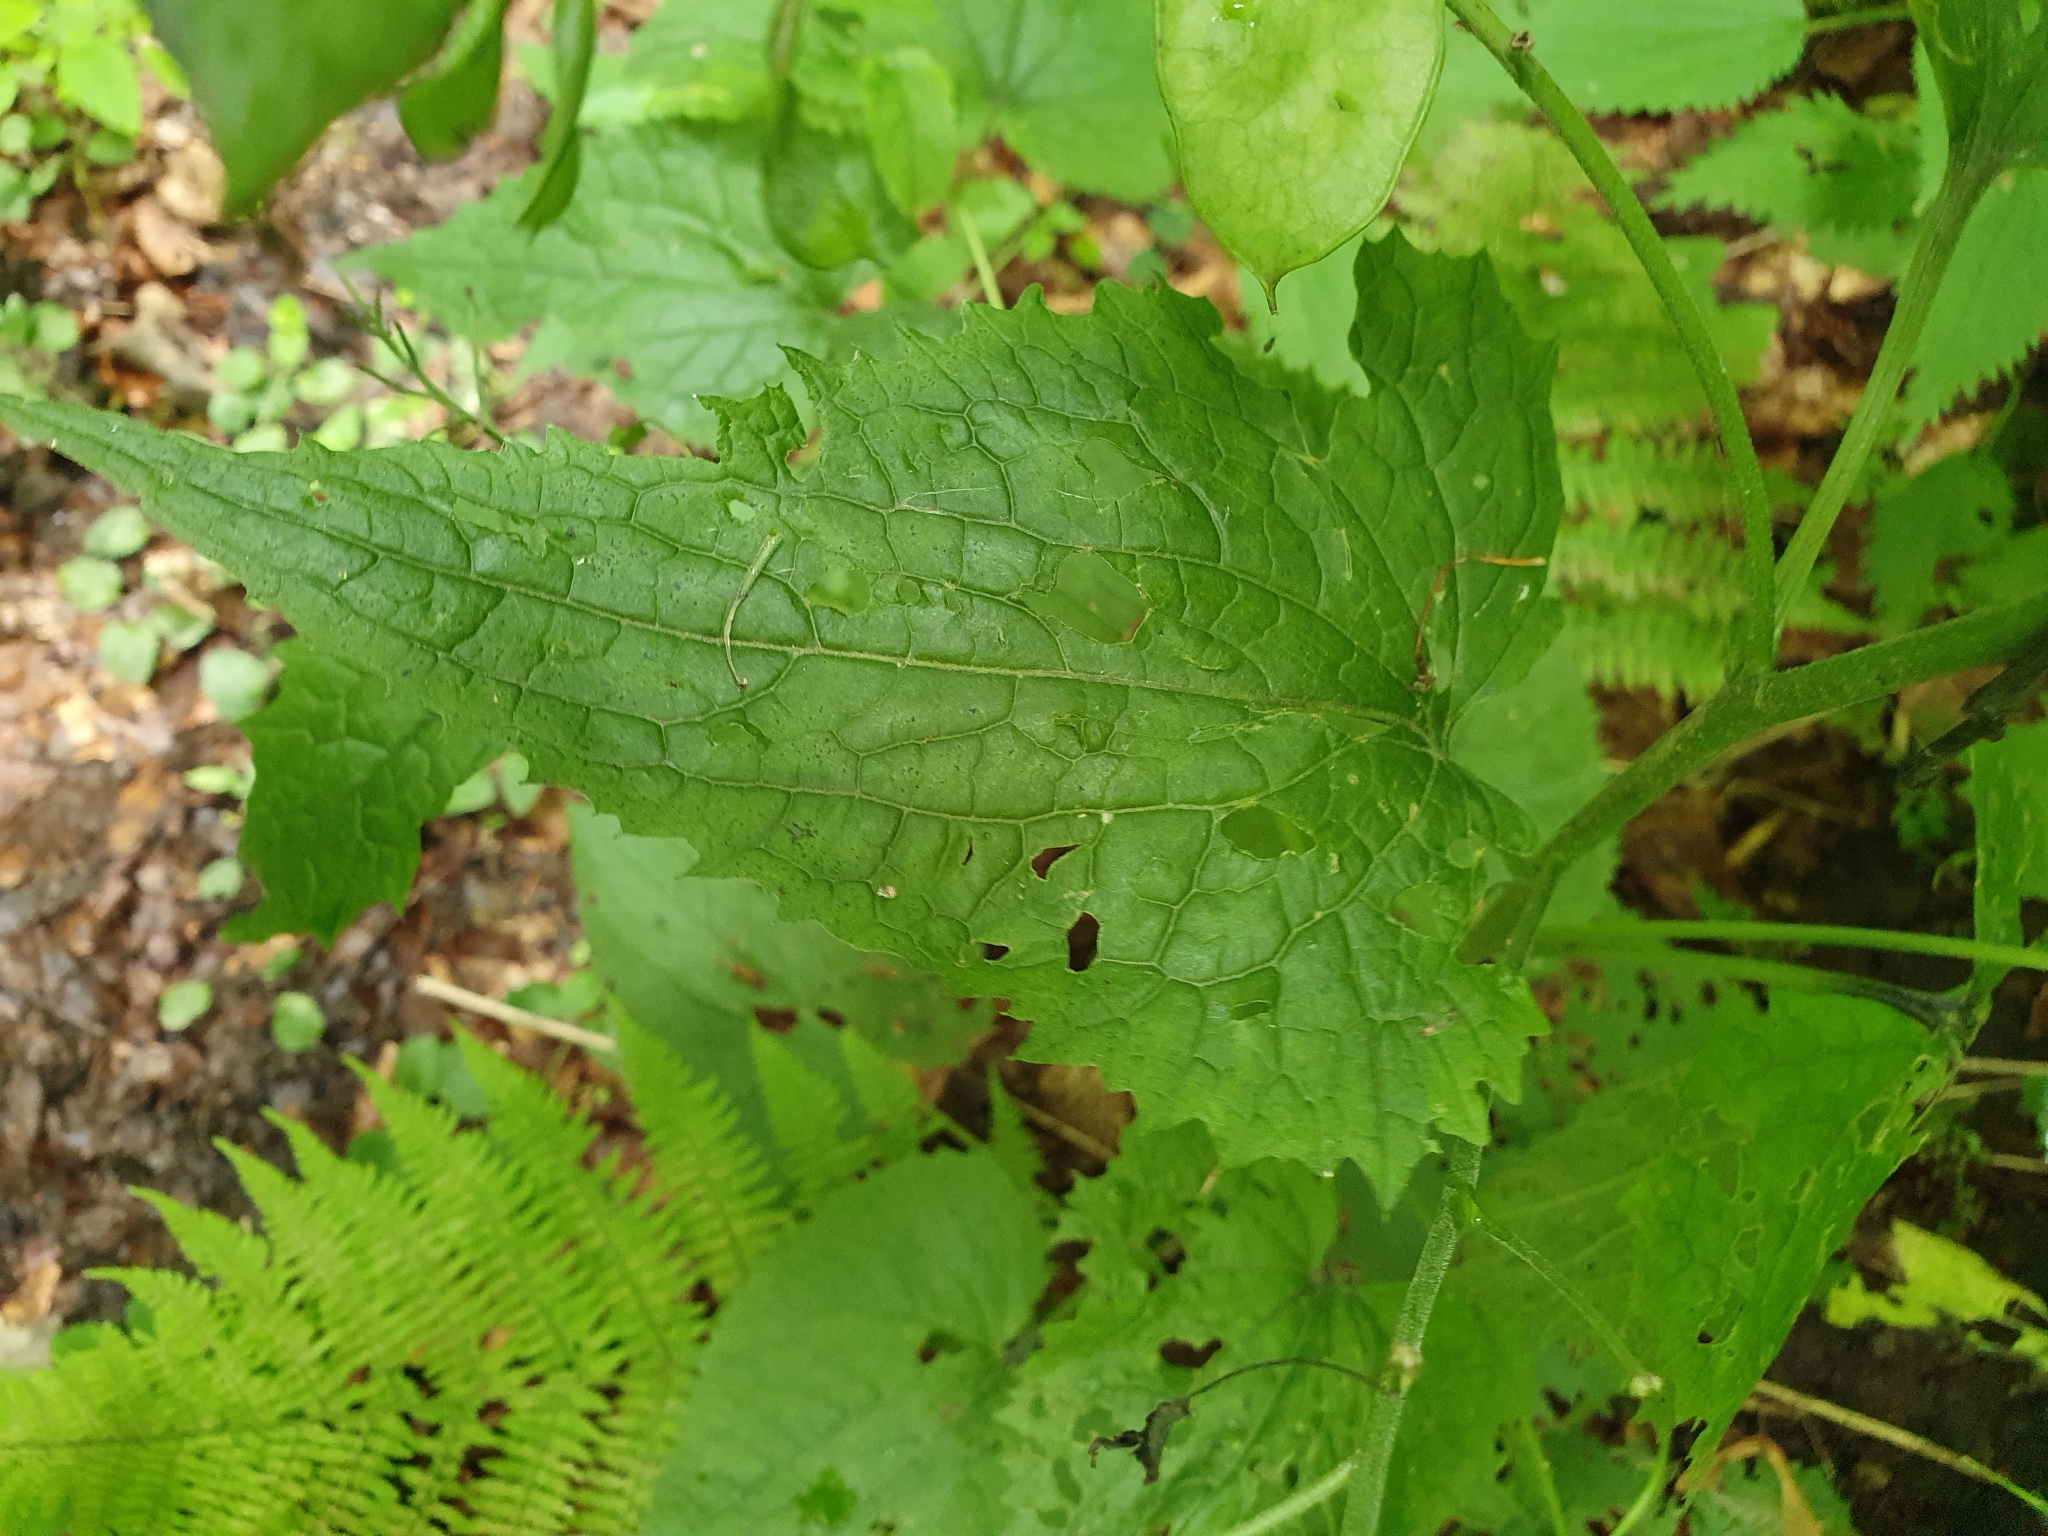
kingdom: Plantae
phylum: Tracheophyta
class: Magnoliopsida
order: Brassicales
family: Brassicaceae
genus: Lunaria
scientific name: Lunaria rediviva
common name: Perennial honesty
